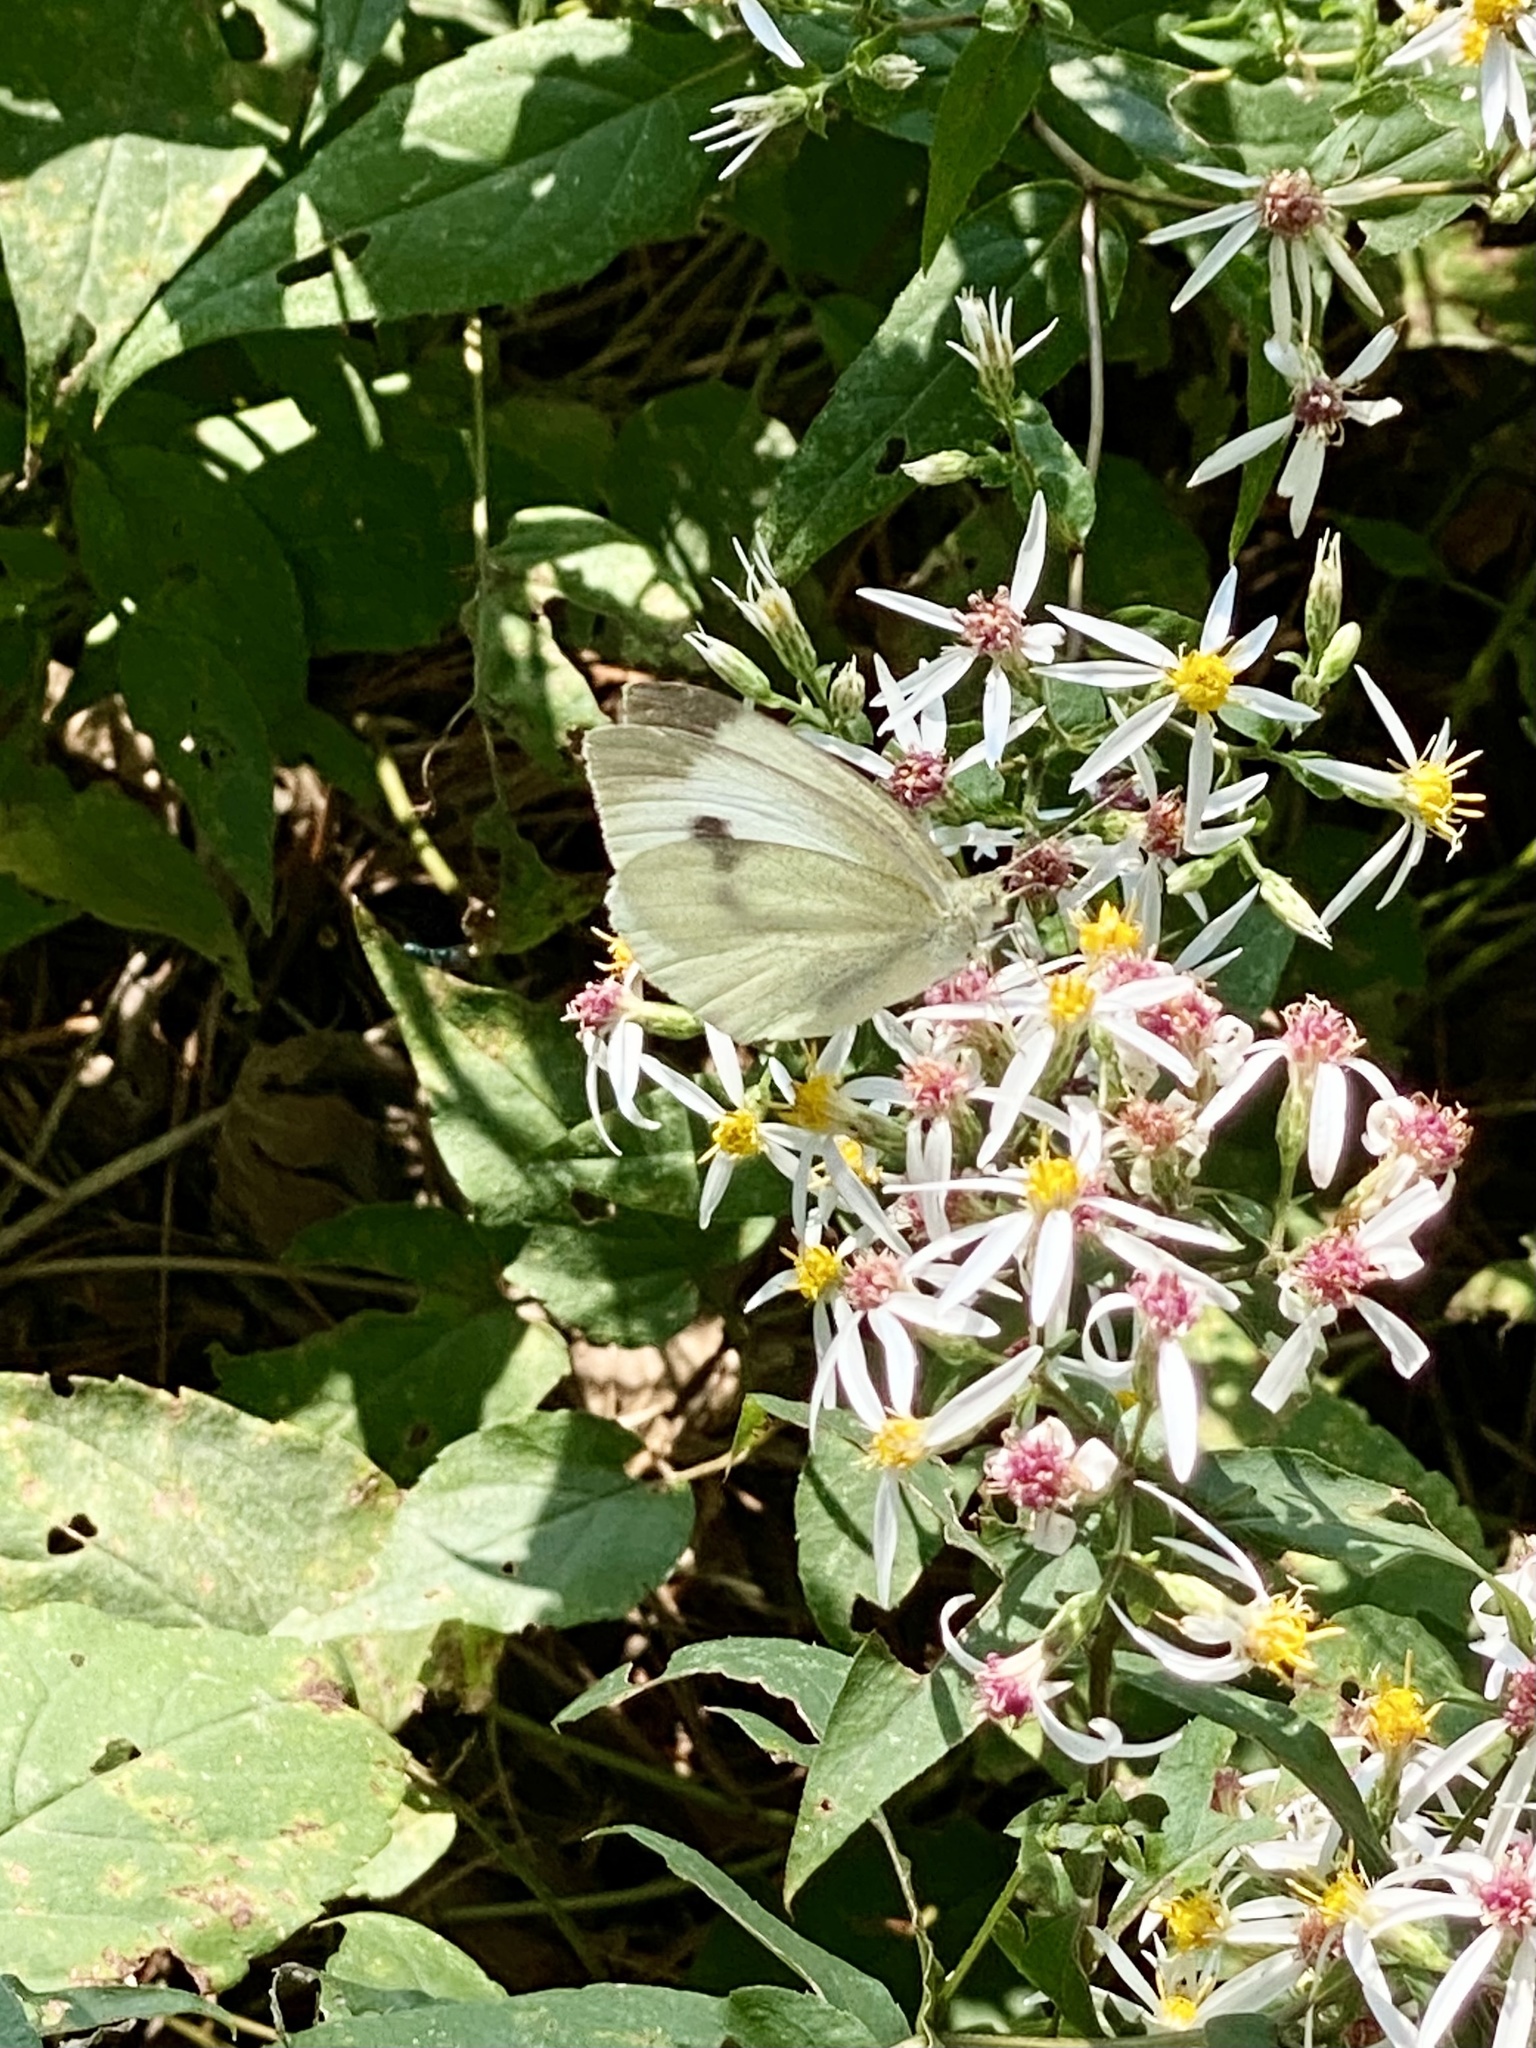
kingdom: Animalia
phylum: Arthropoda
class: Insecta
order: Lepidoptera
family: Pieridae
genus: Pieris
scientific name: Pieris rapae
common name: Small white
